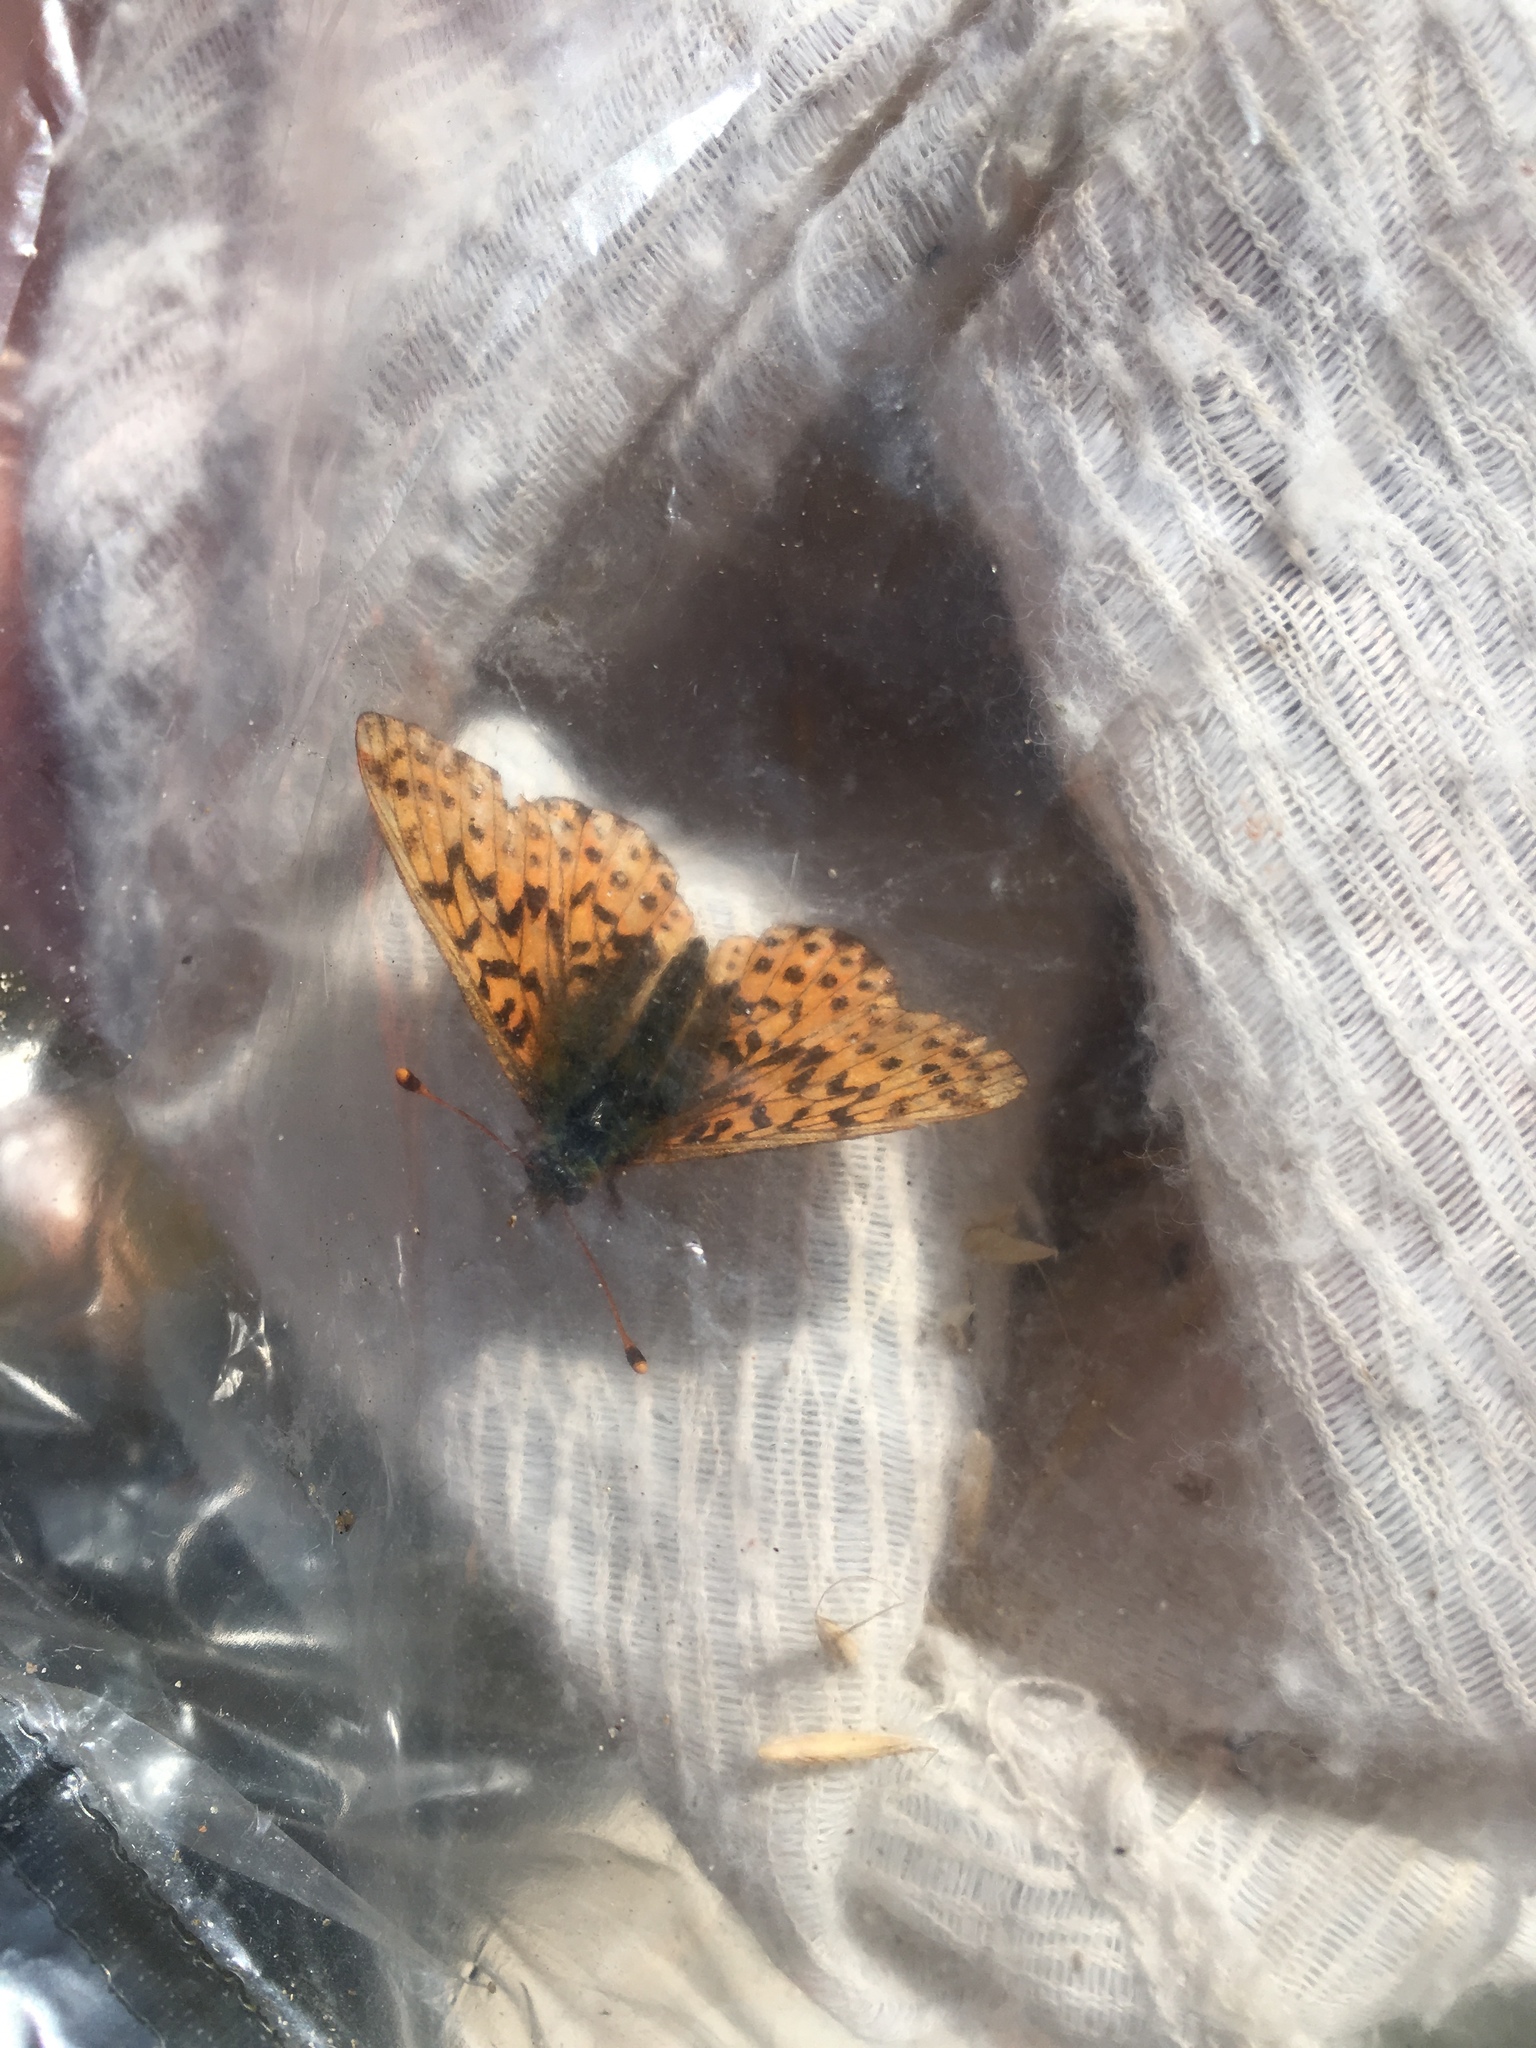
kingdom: Animalia
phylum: Arthropoda
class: Insecta
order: Lepidoptera
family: Nymphalidae
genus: Boloria
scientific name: Boloria aquilonaris
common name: Cranberry fritillary
